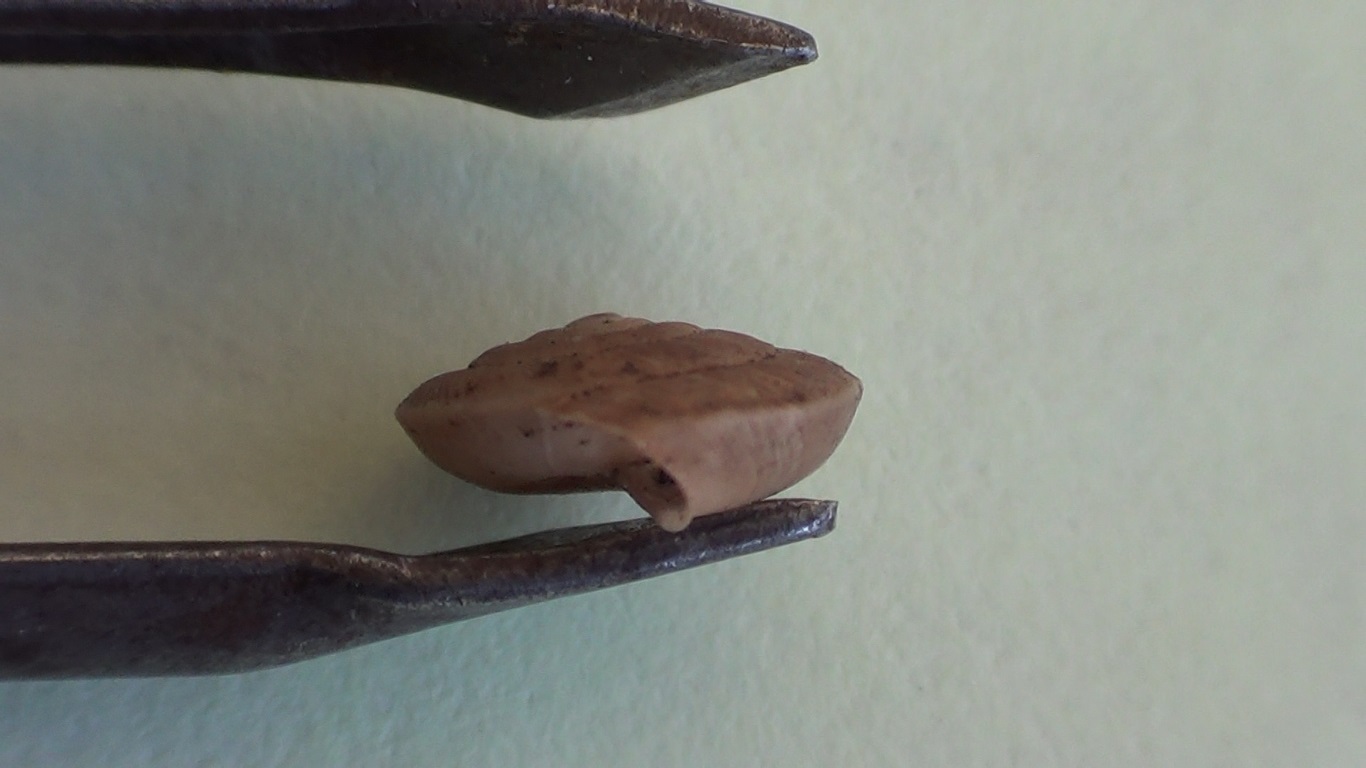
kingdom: Animalia
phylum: Mollusca
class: Gastropoda
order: Stylommatophora
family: Trissexodontidae
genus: Caracollina
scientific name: Caracollina lenticula
